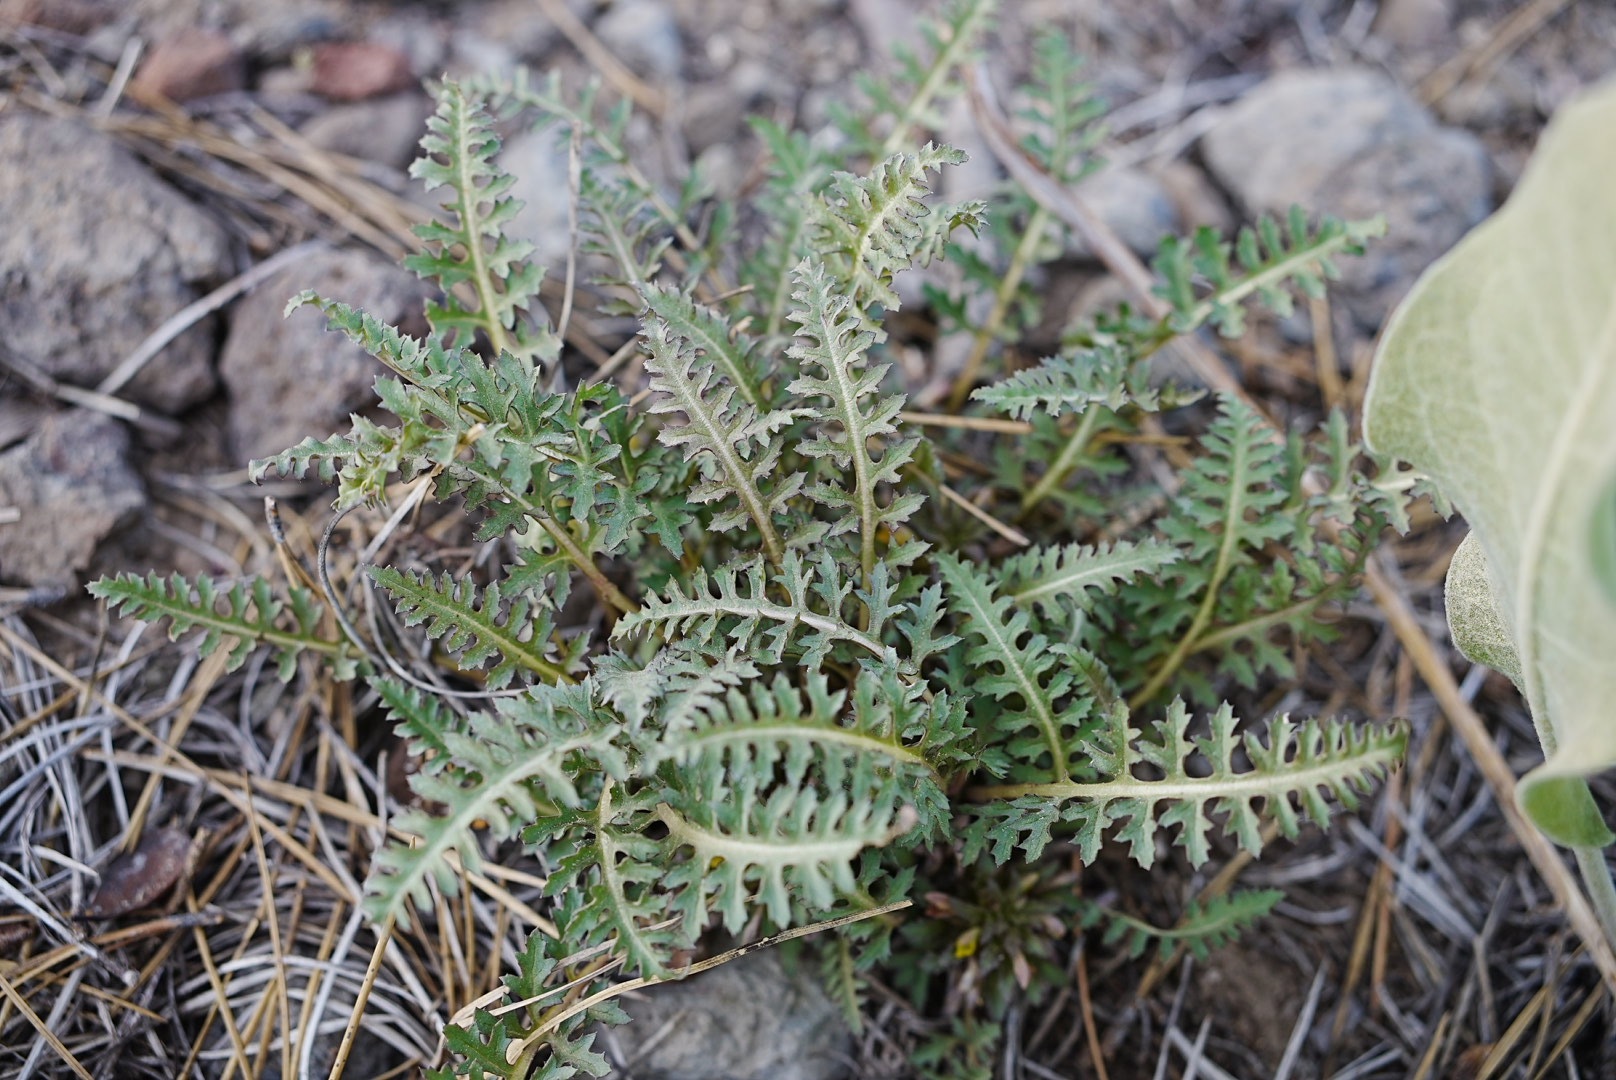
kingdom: Plantae
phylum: Tracheophyta
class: Magnoliopsida
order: Lamiales
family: Orobanchaceae
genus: Pedicularis
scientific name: Pedicularis semibarbata
